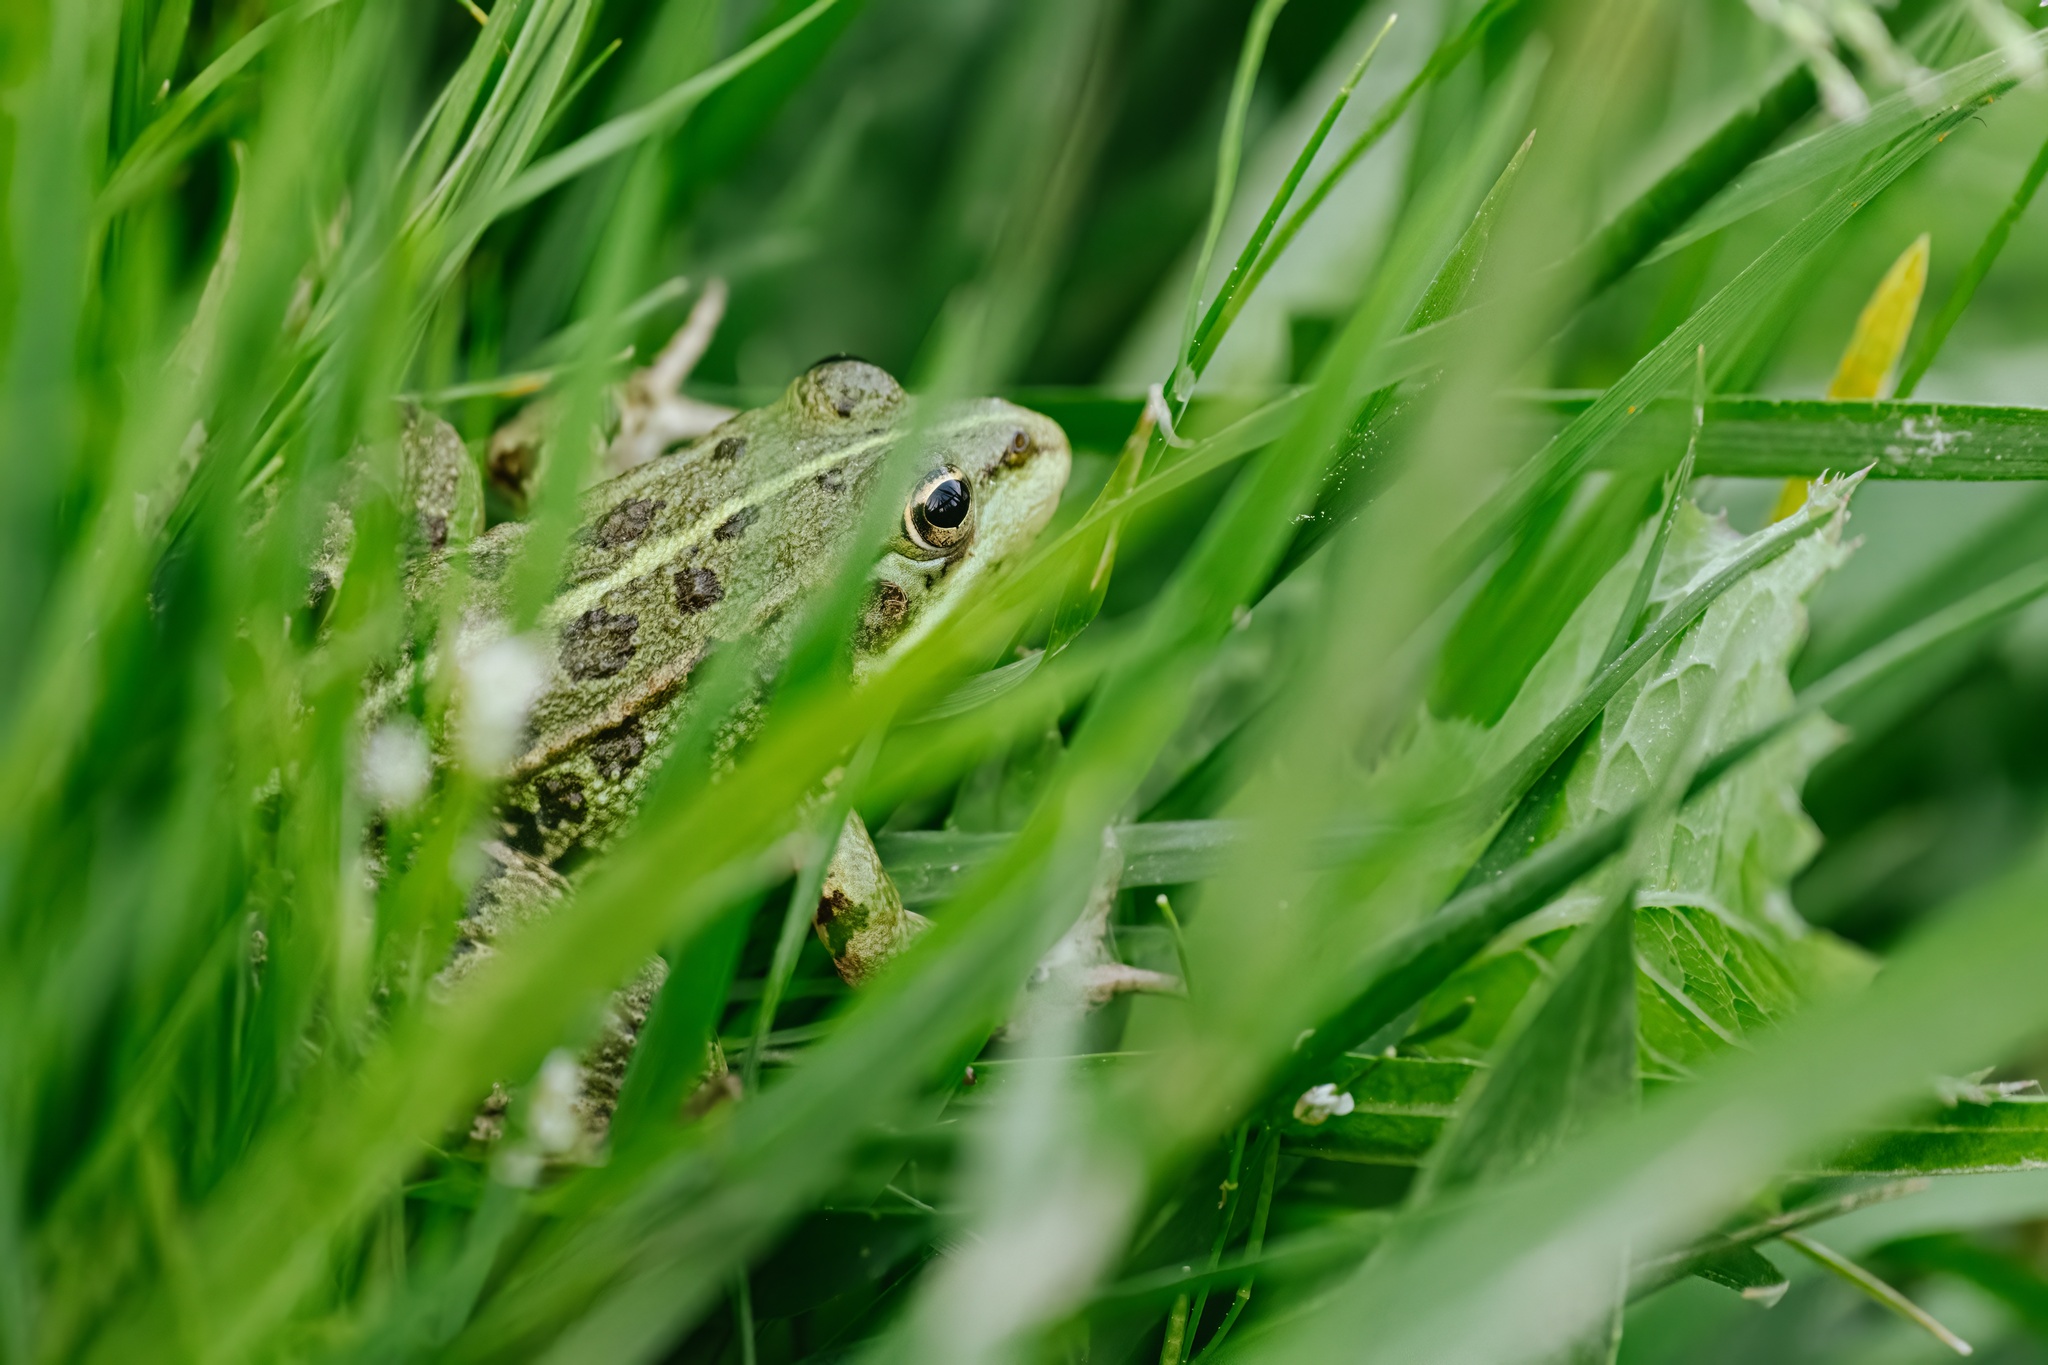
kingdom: Animalia
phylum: Chordata
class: Amphibia
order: Anura
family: Ranidae
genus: Pelophylax
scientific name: Pelophylax perezi
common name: Perez's frog
